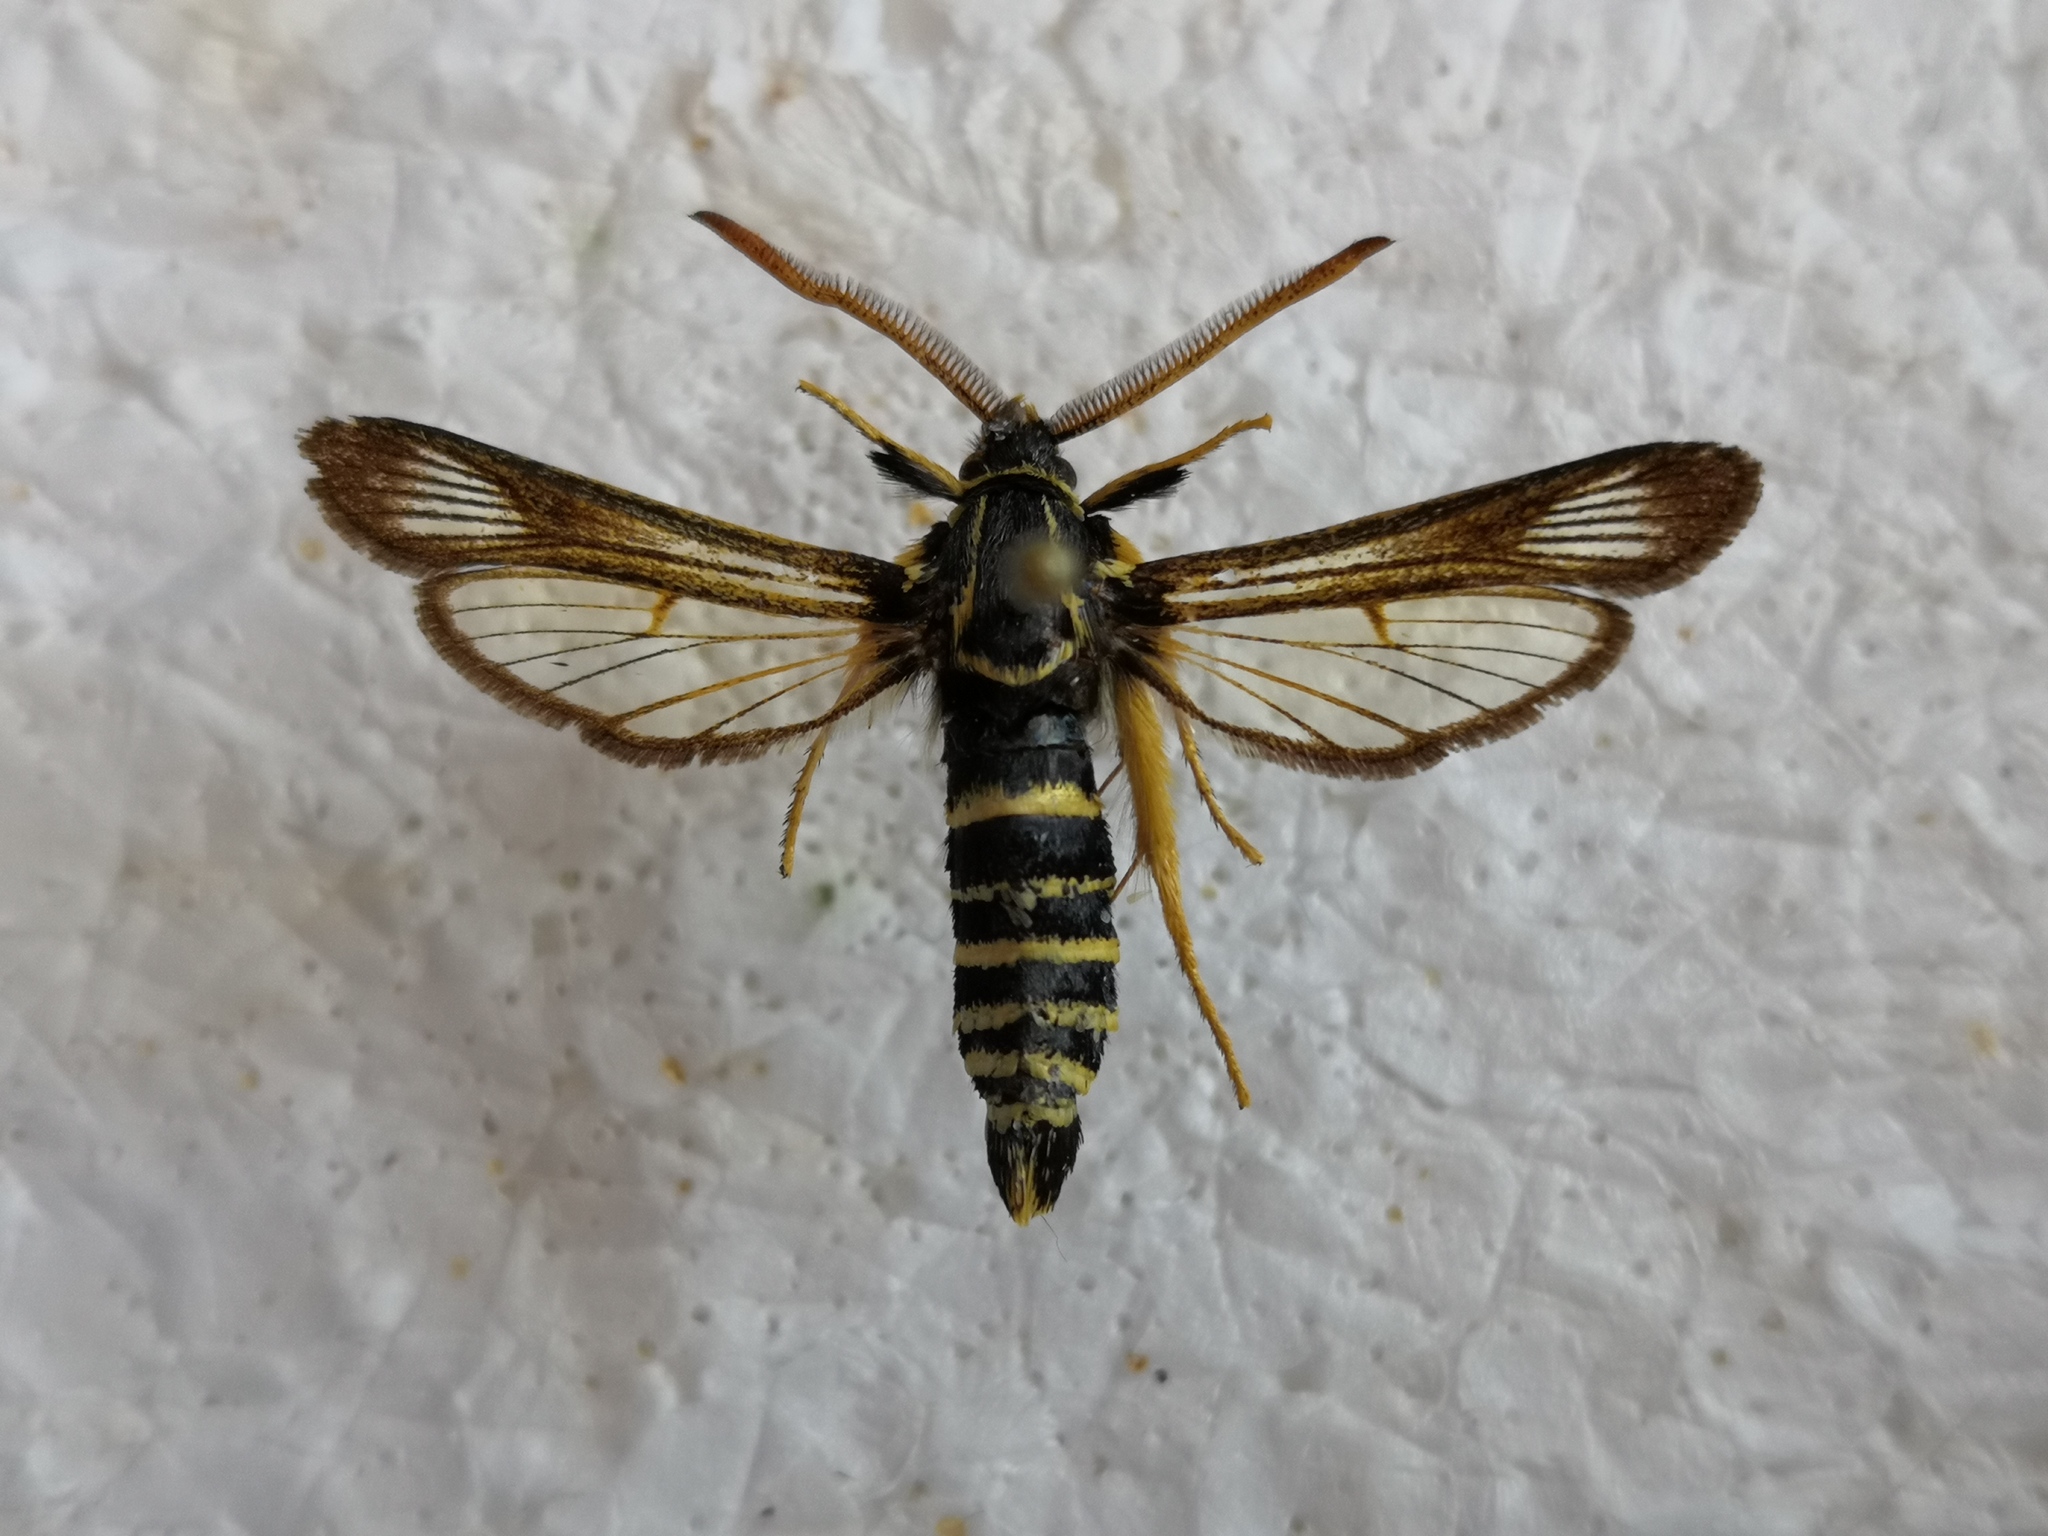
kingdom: Animalia
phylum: Arthropoda
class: Insecta
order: Lepidoptera
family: Sesiidae
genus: Paranthrene
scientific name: Paranthrene insolitus
